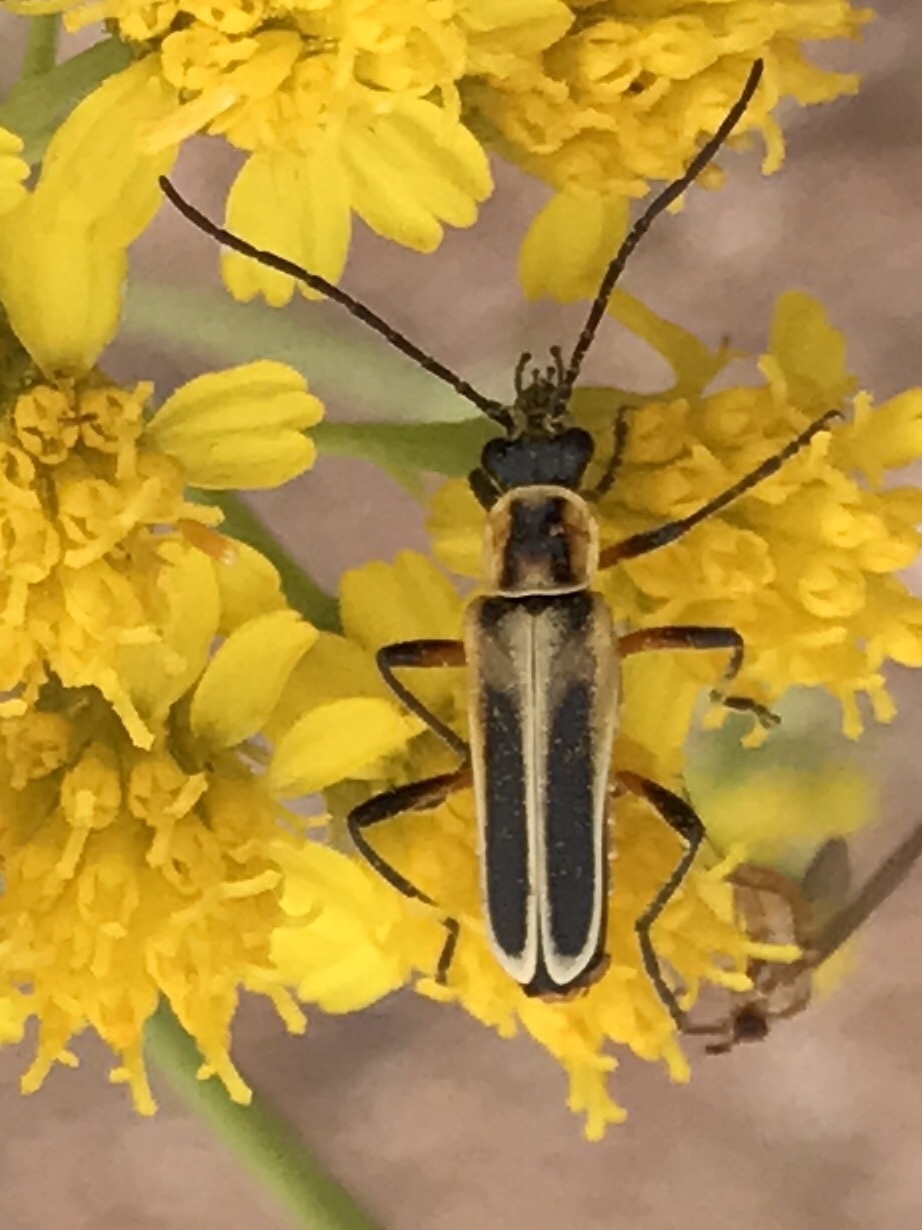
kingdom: Animalia
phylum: Arthropoda
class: Insecta
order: Coleoptera
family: Cantharidae
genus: Chauliognathus
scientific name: Chauliognathus lewisi
